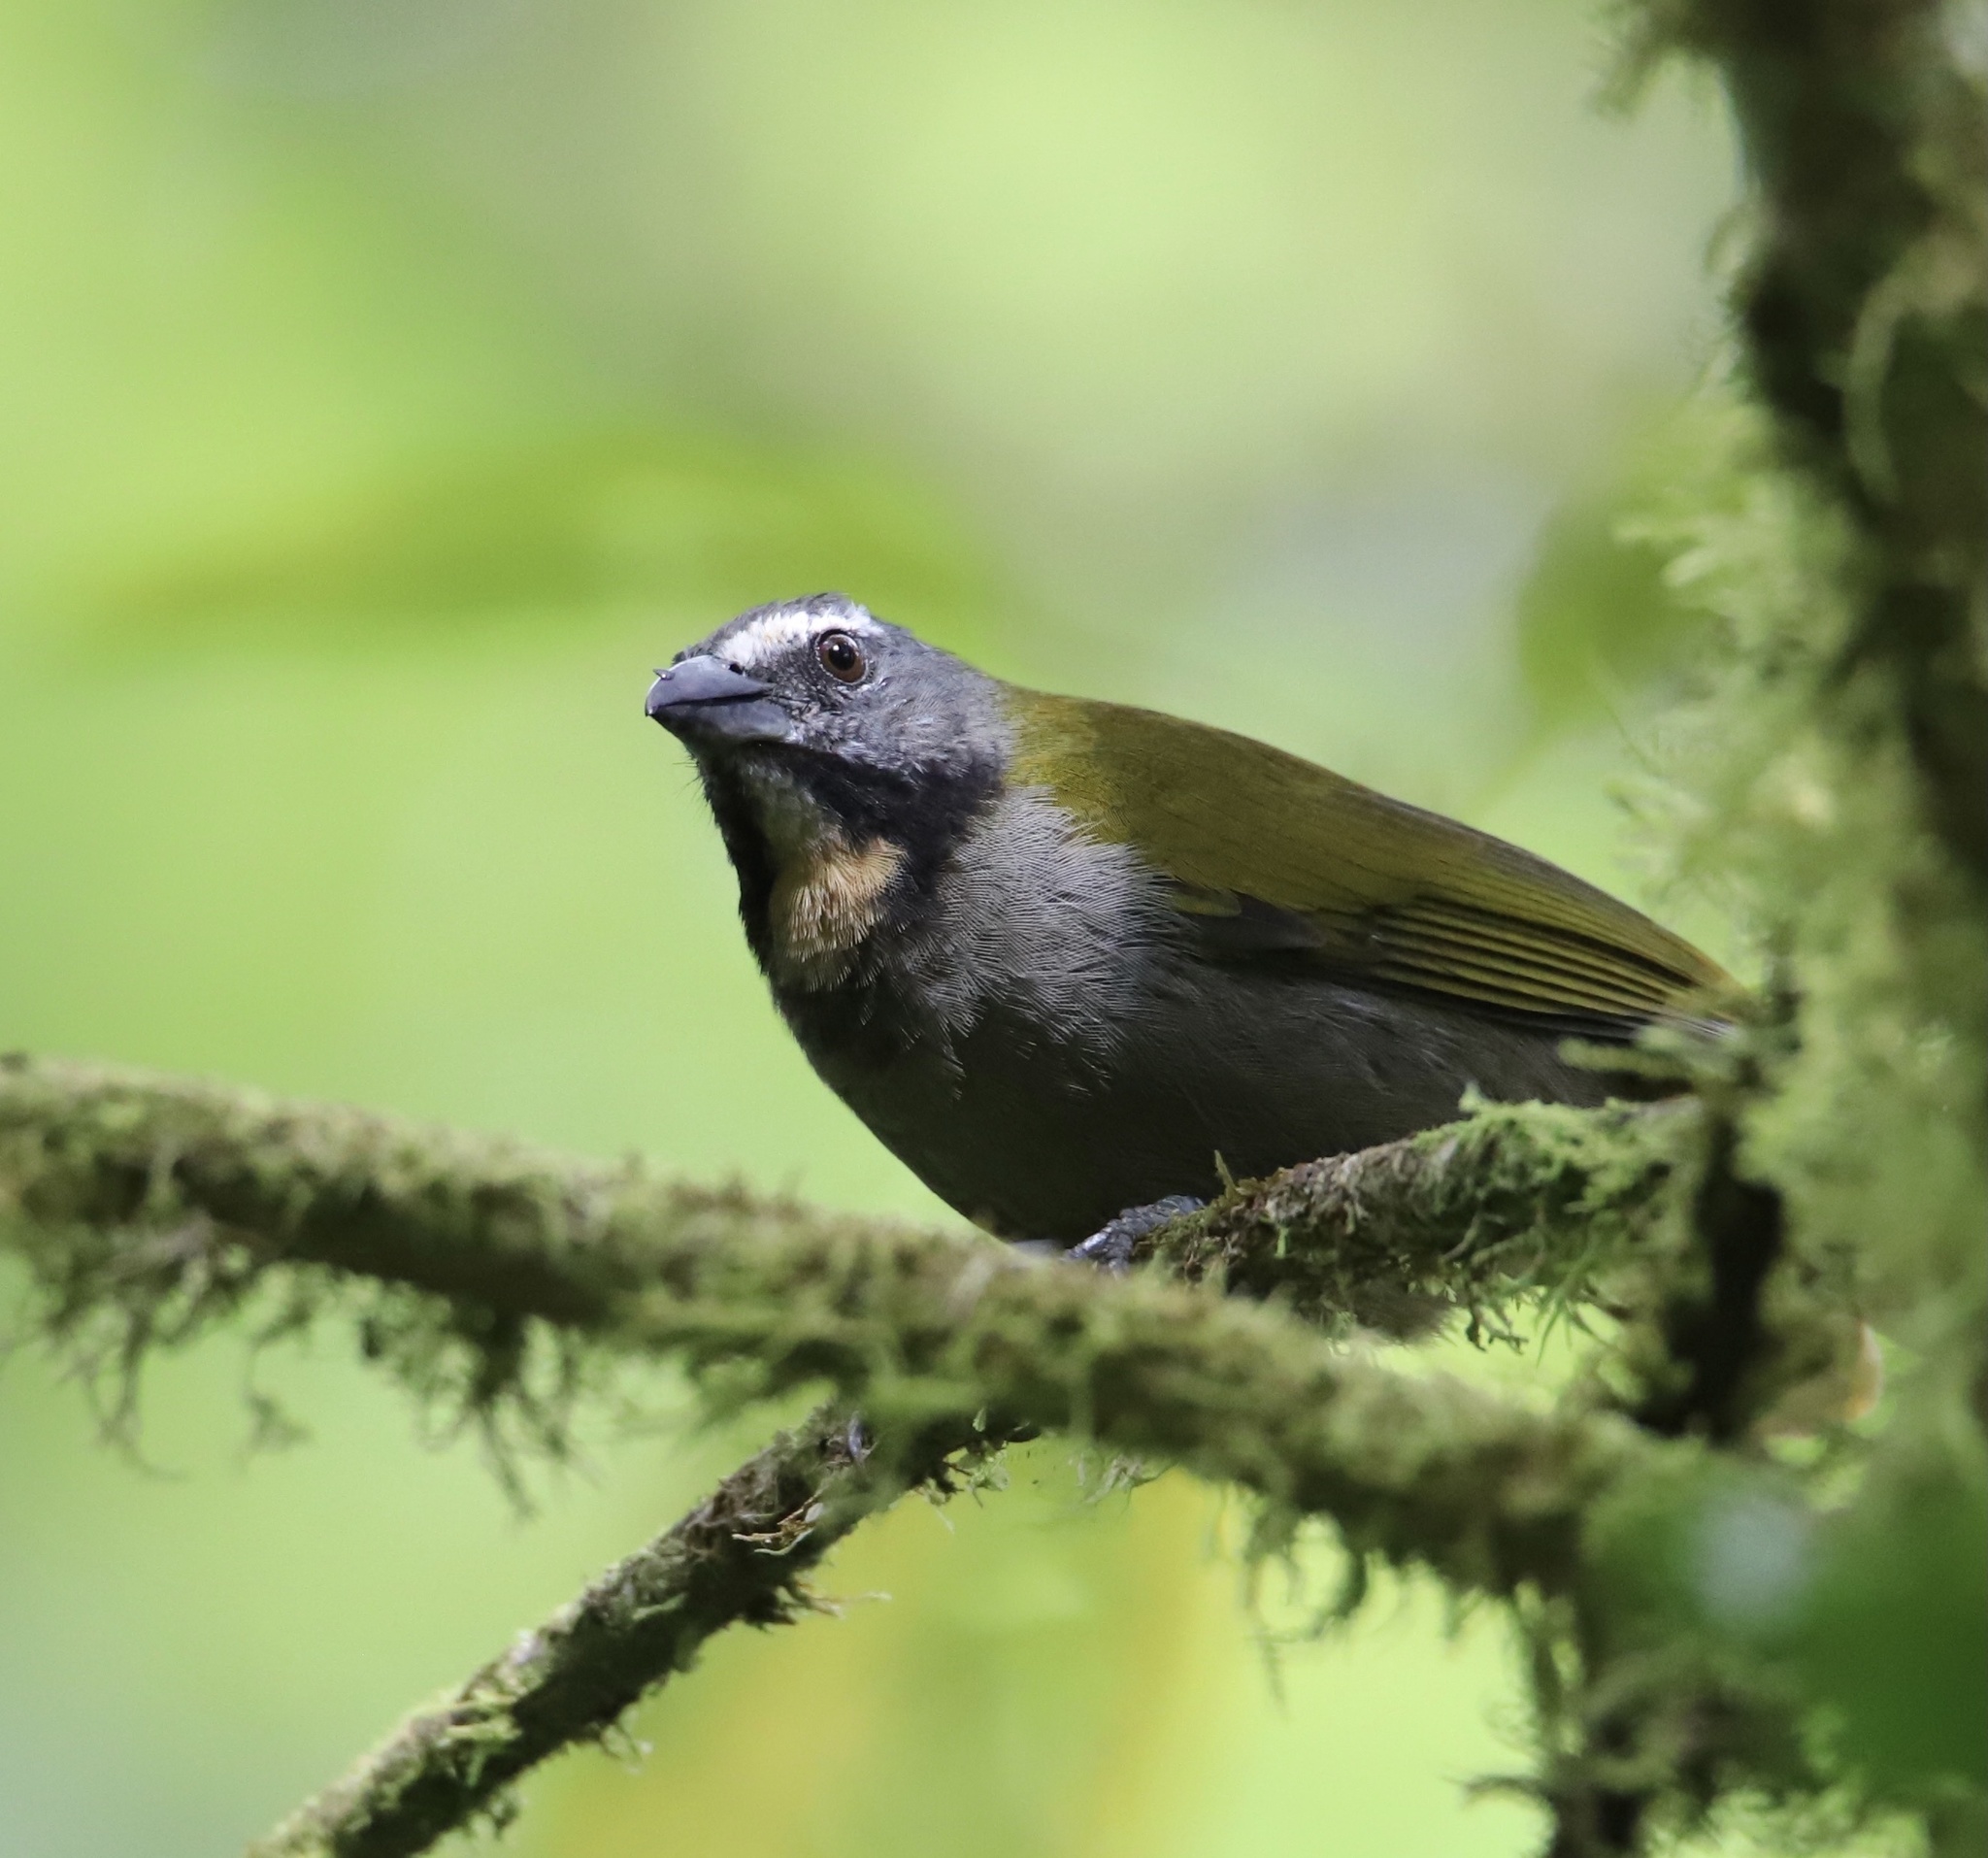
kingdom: Animalia
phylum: Chordata
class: Aves
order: Passeriformes
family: Thraupidae
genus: Saltator
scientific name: Saltator maximus
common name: Buff-throated saltator
